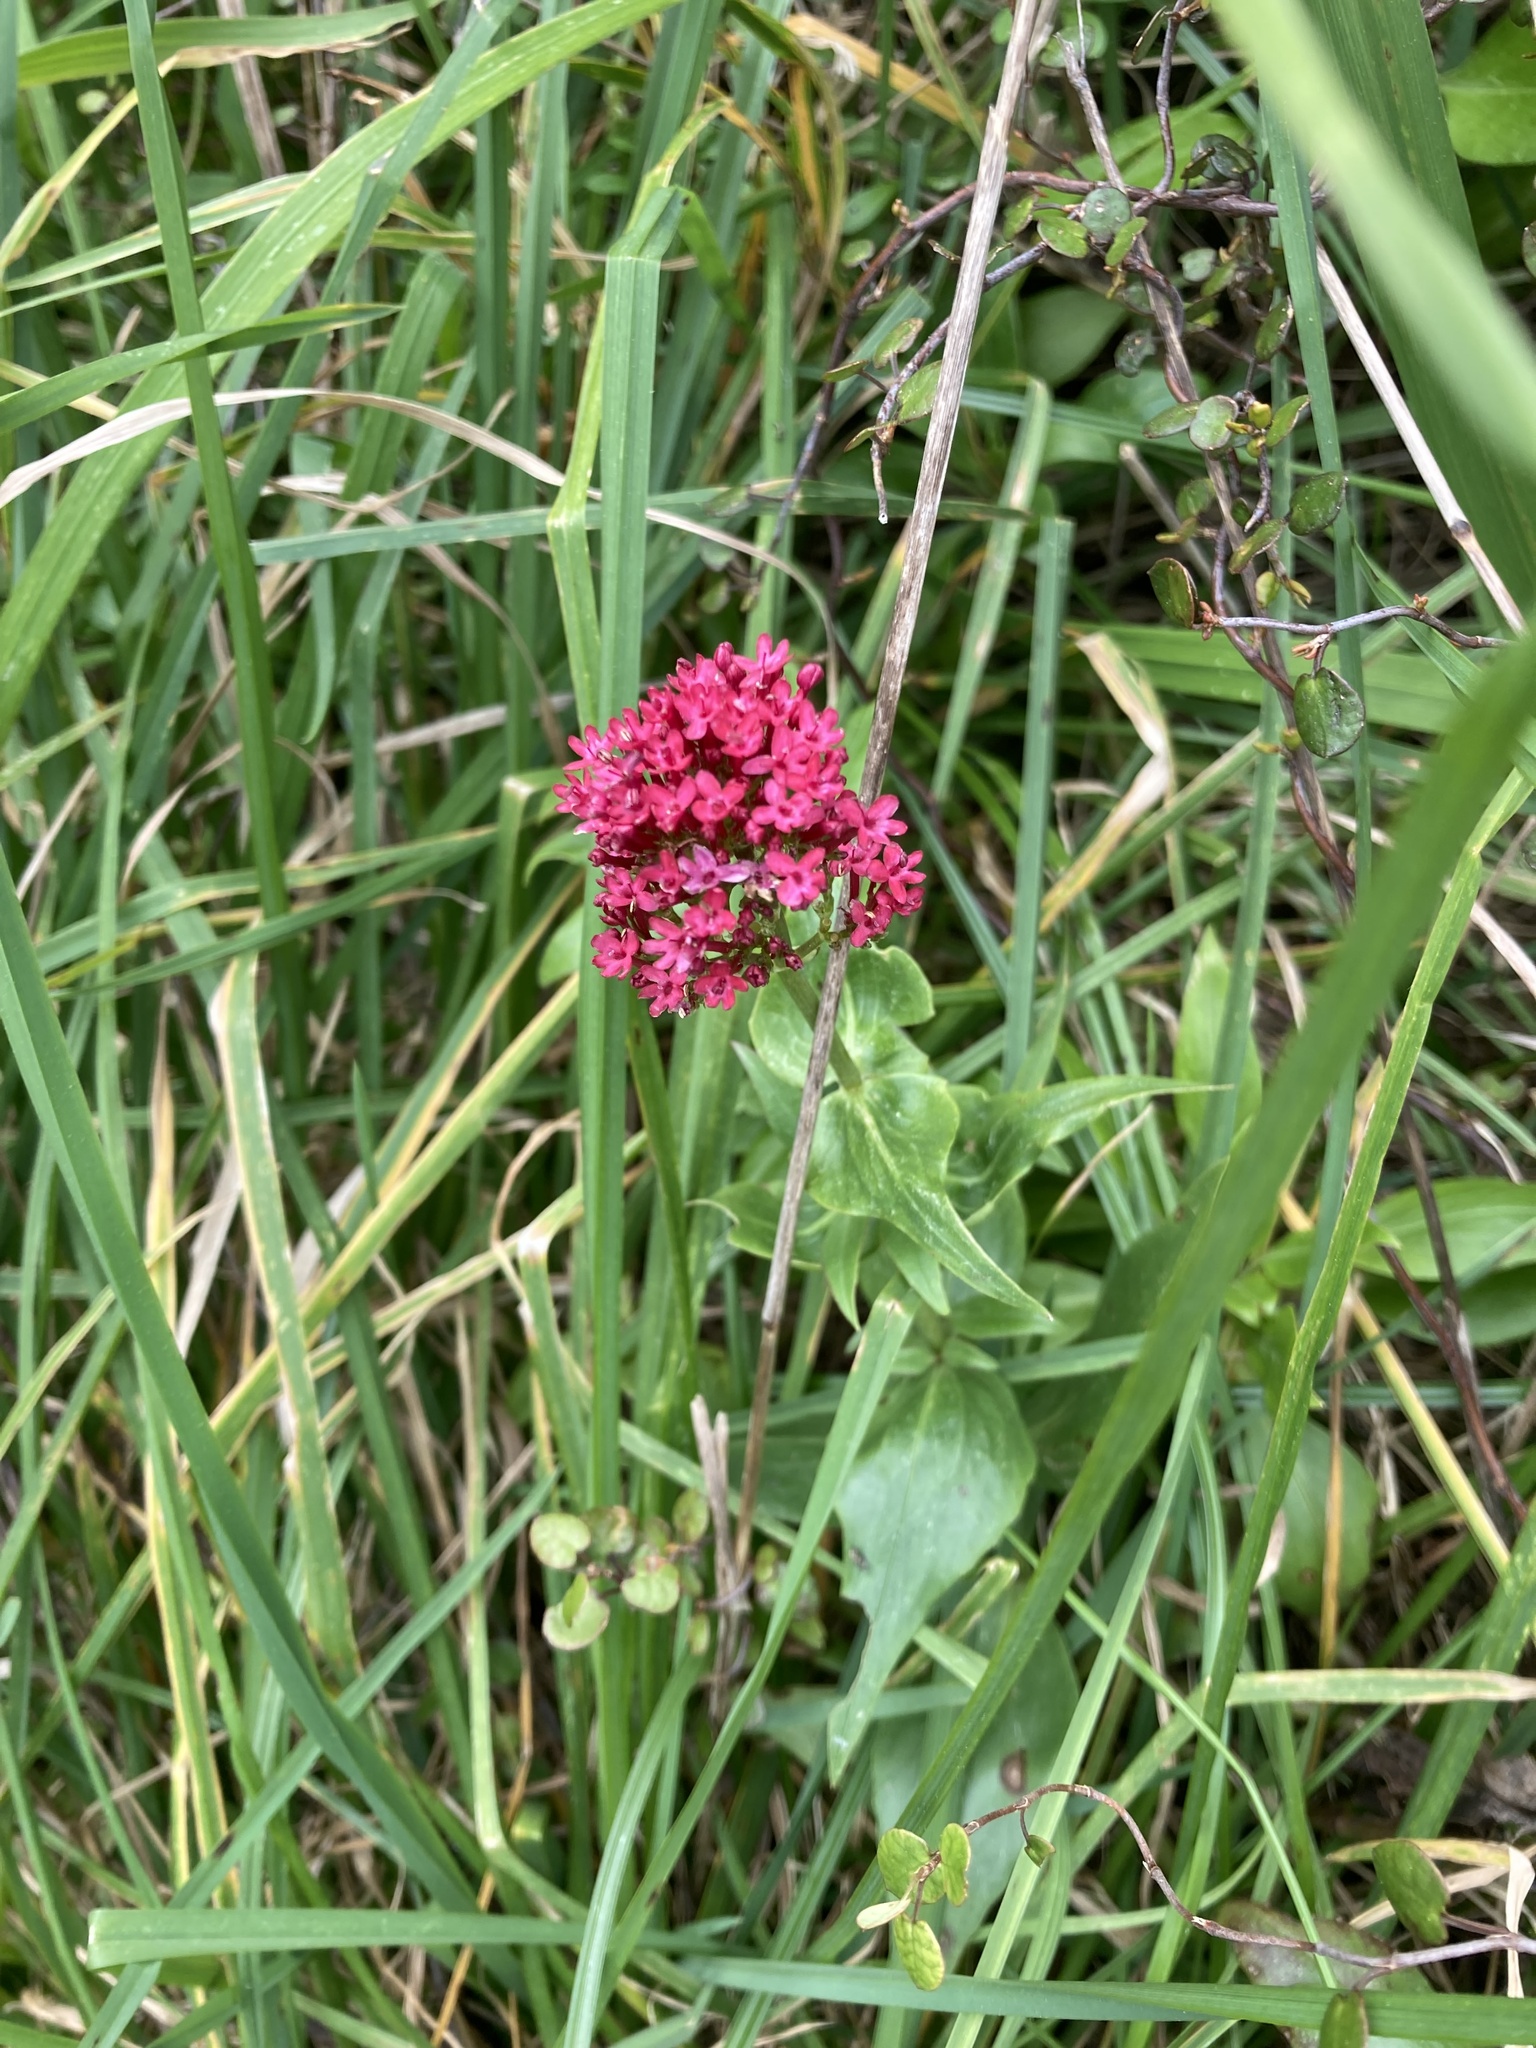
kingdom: Plantae
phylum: Tracheophyta
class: Magnoliopsida
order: Dipsacales
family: Caprifoliaceae
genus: Centranthus
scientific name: Centranthus ruber
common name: Red valerian
